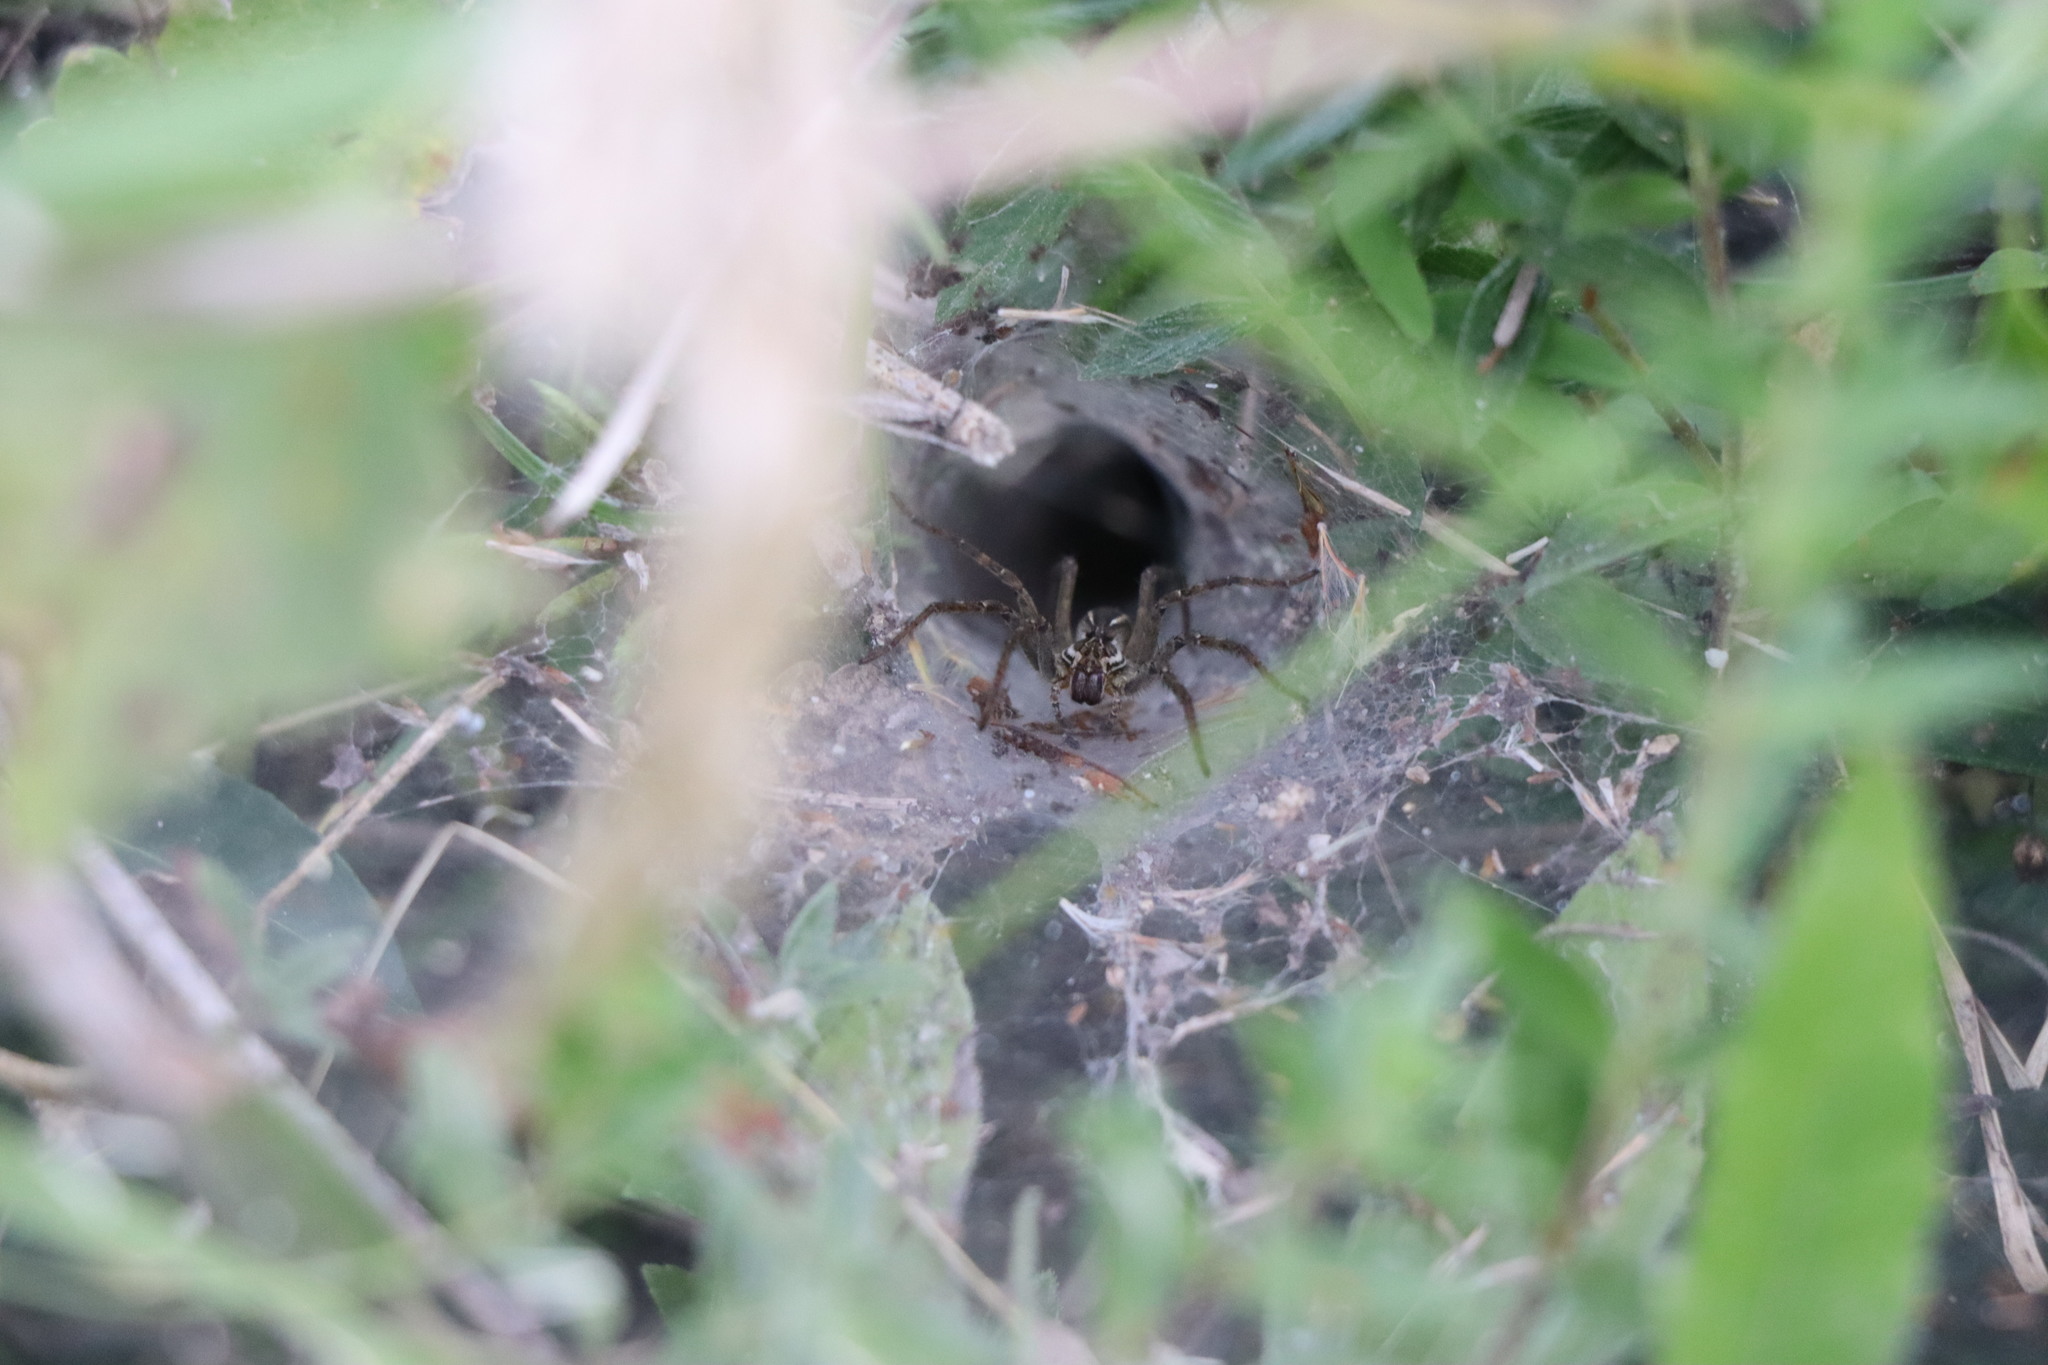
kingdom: Animalia
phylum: Arthropoda
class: Arachnida
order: Araneae
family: Lycosidae
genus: Aglaoctenus
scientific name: Aglaoctenus lagotis
